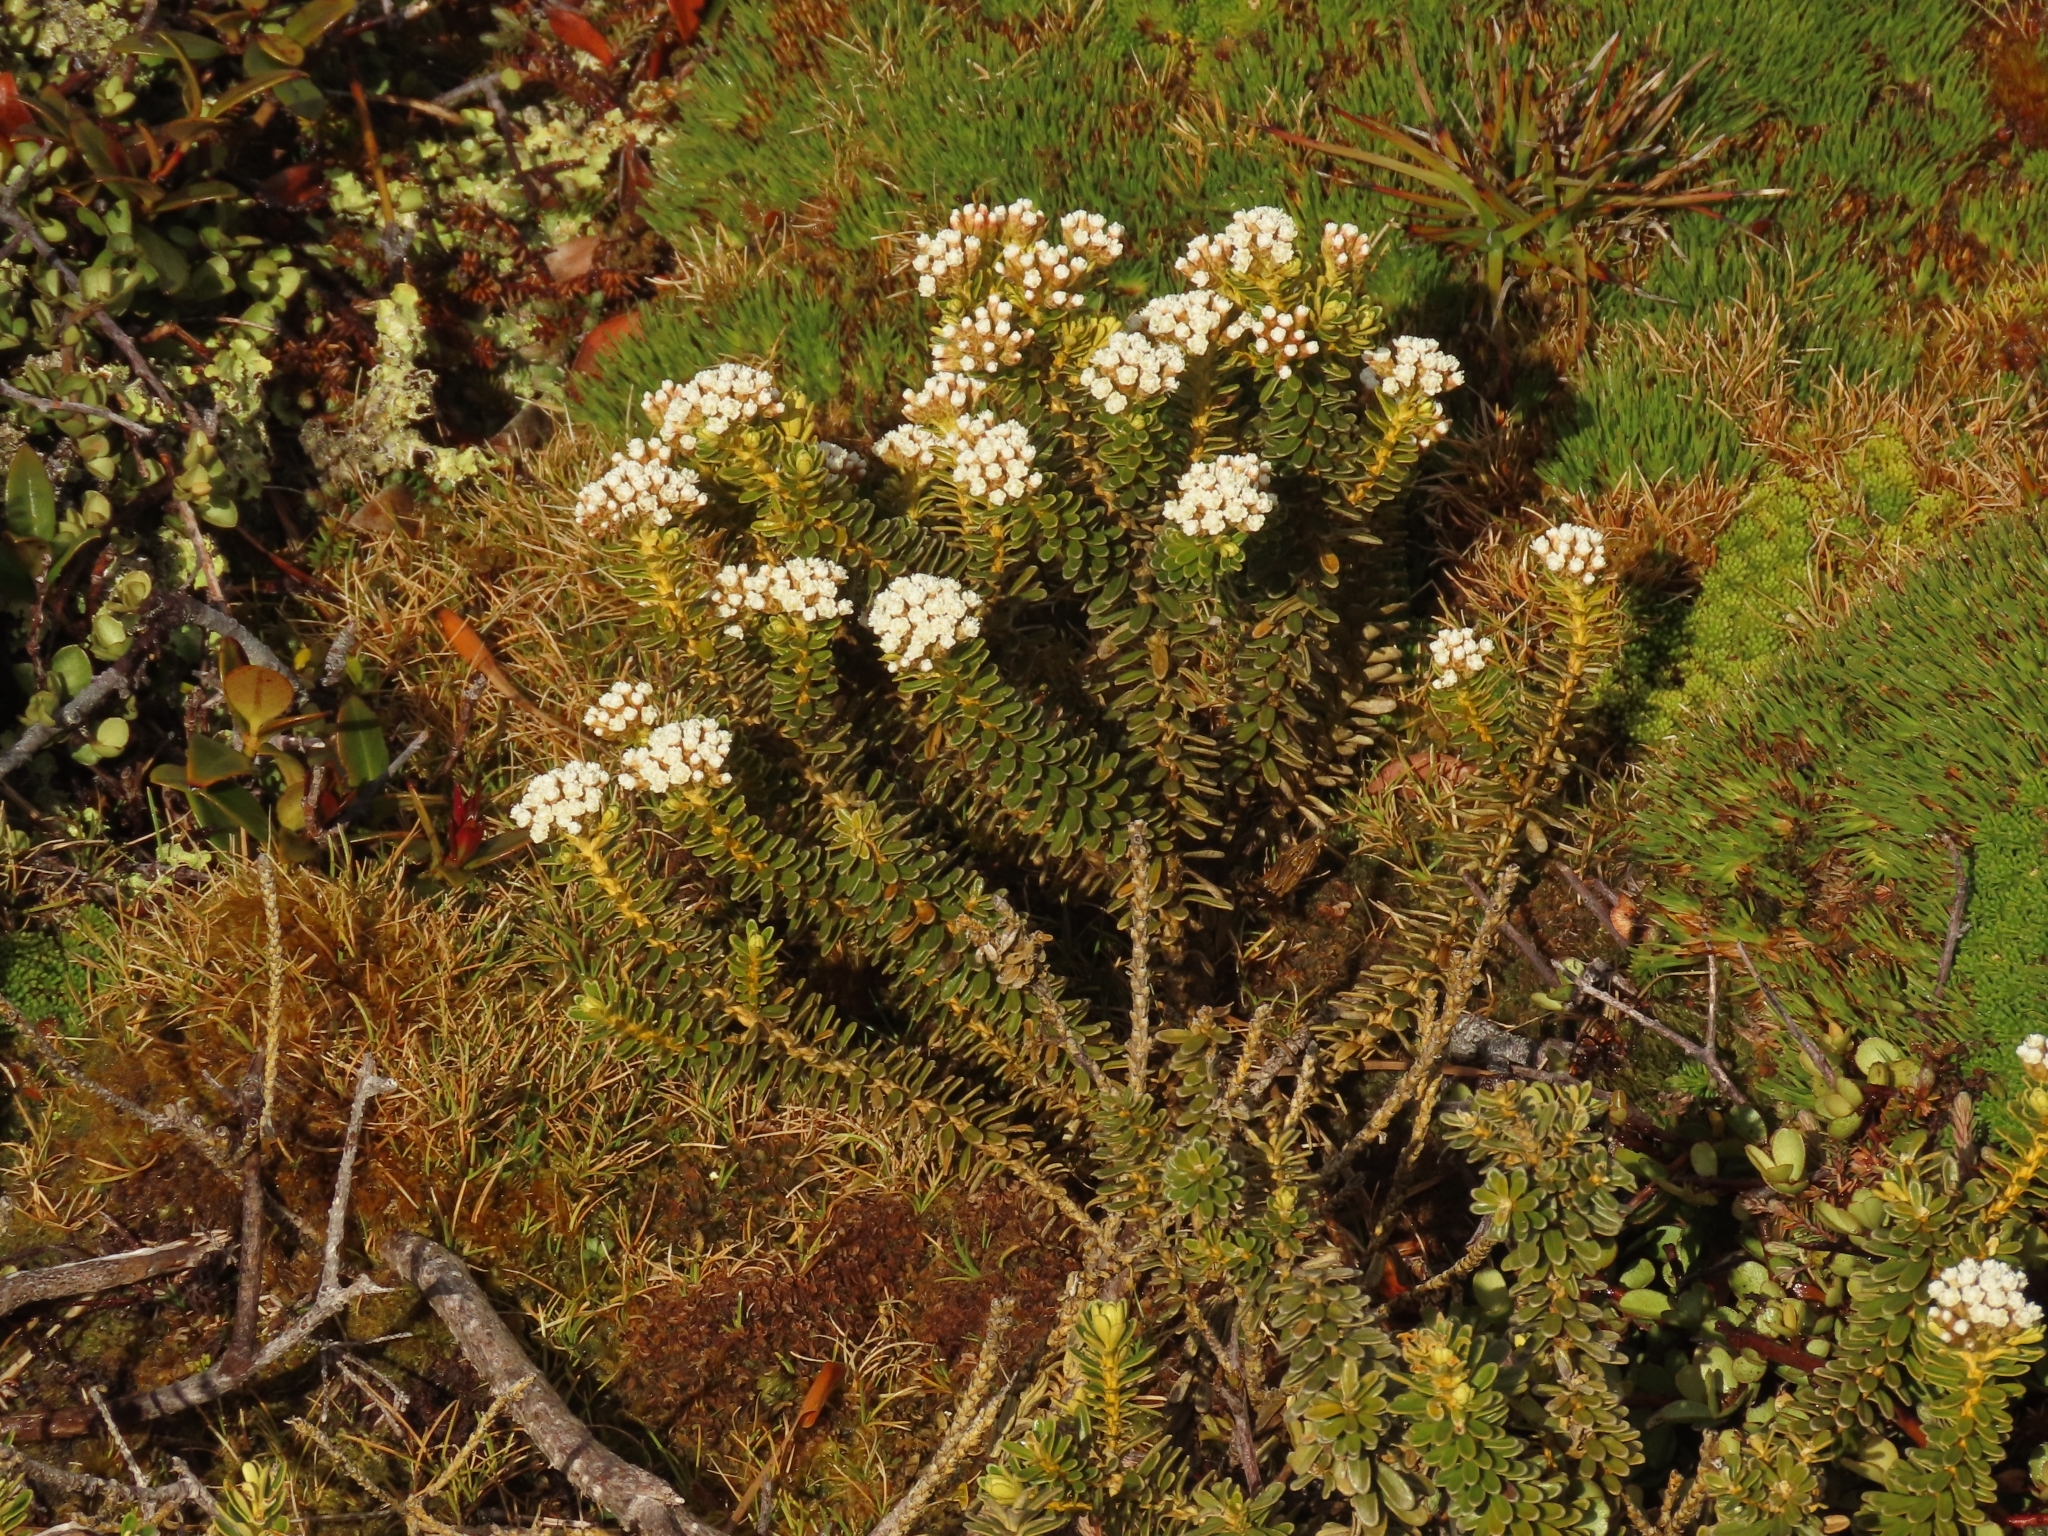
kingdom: Plantae
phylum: Tracheophyta
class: Magnoliopsida
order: Asterales
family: Asteraceae
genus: Ozothamnus
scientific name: Ozothamnus leptophyllus
